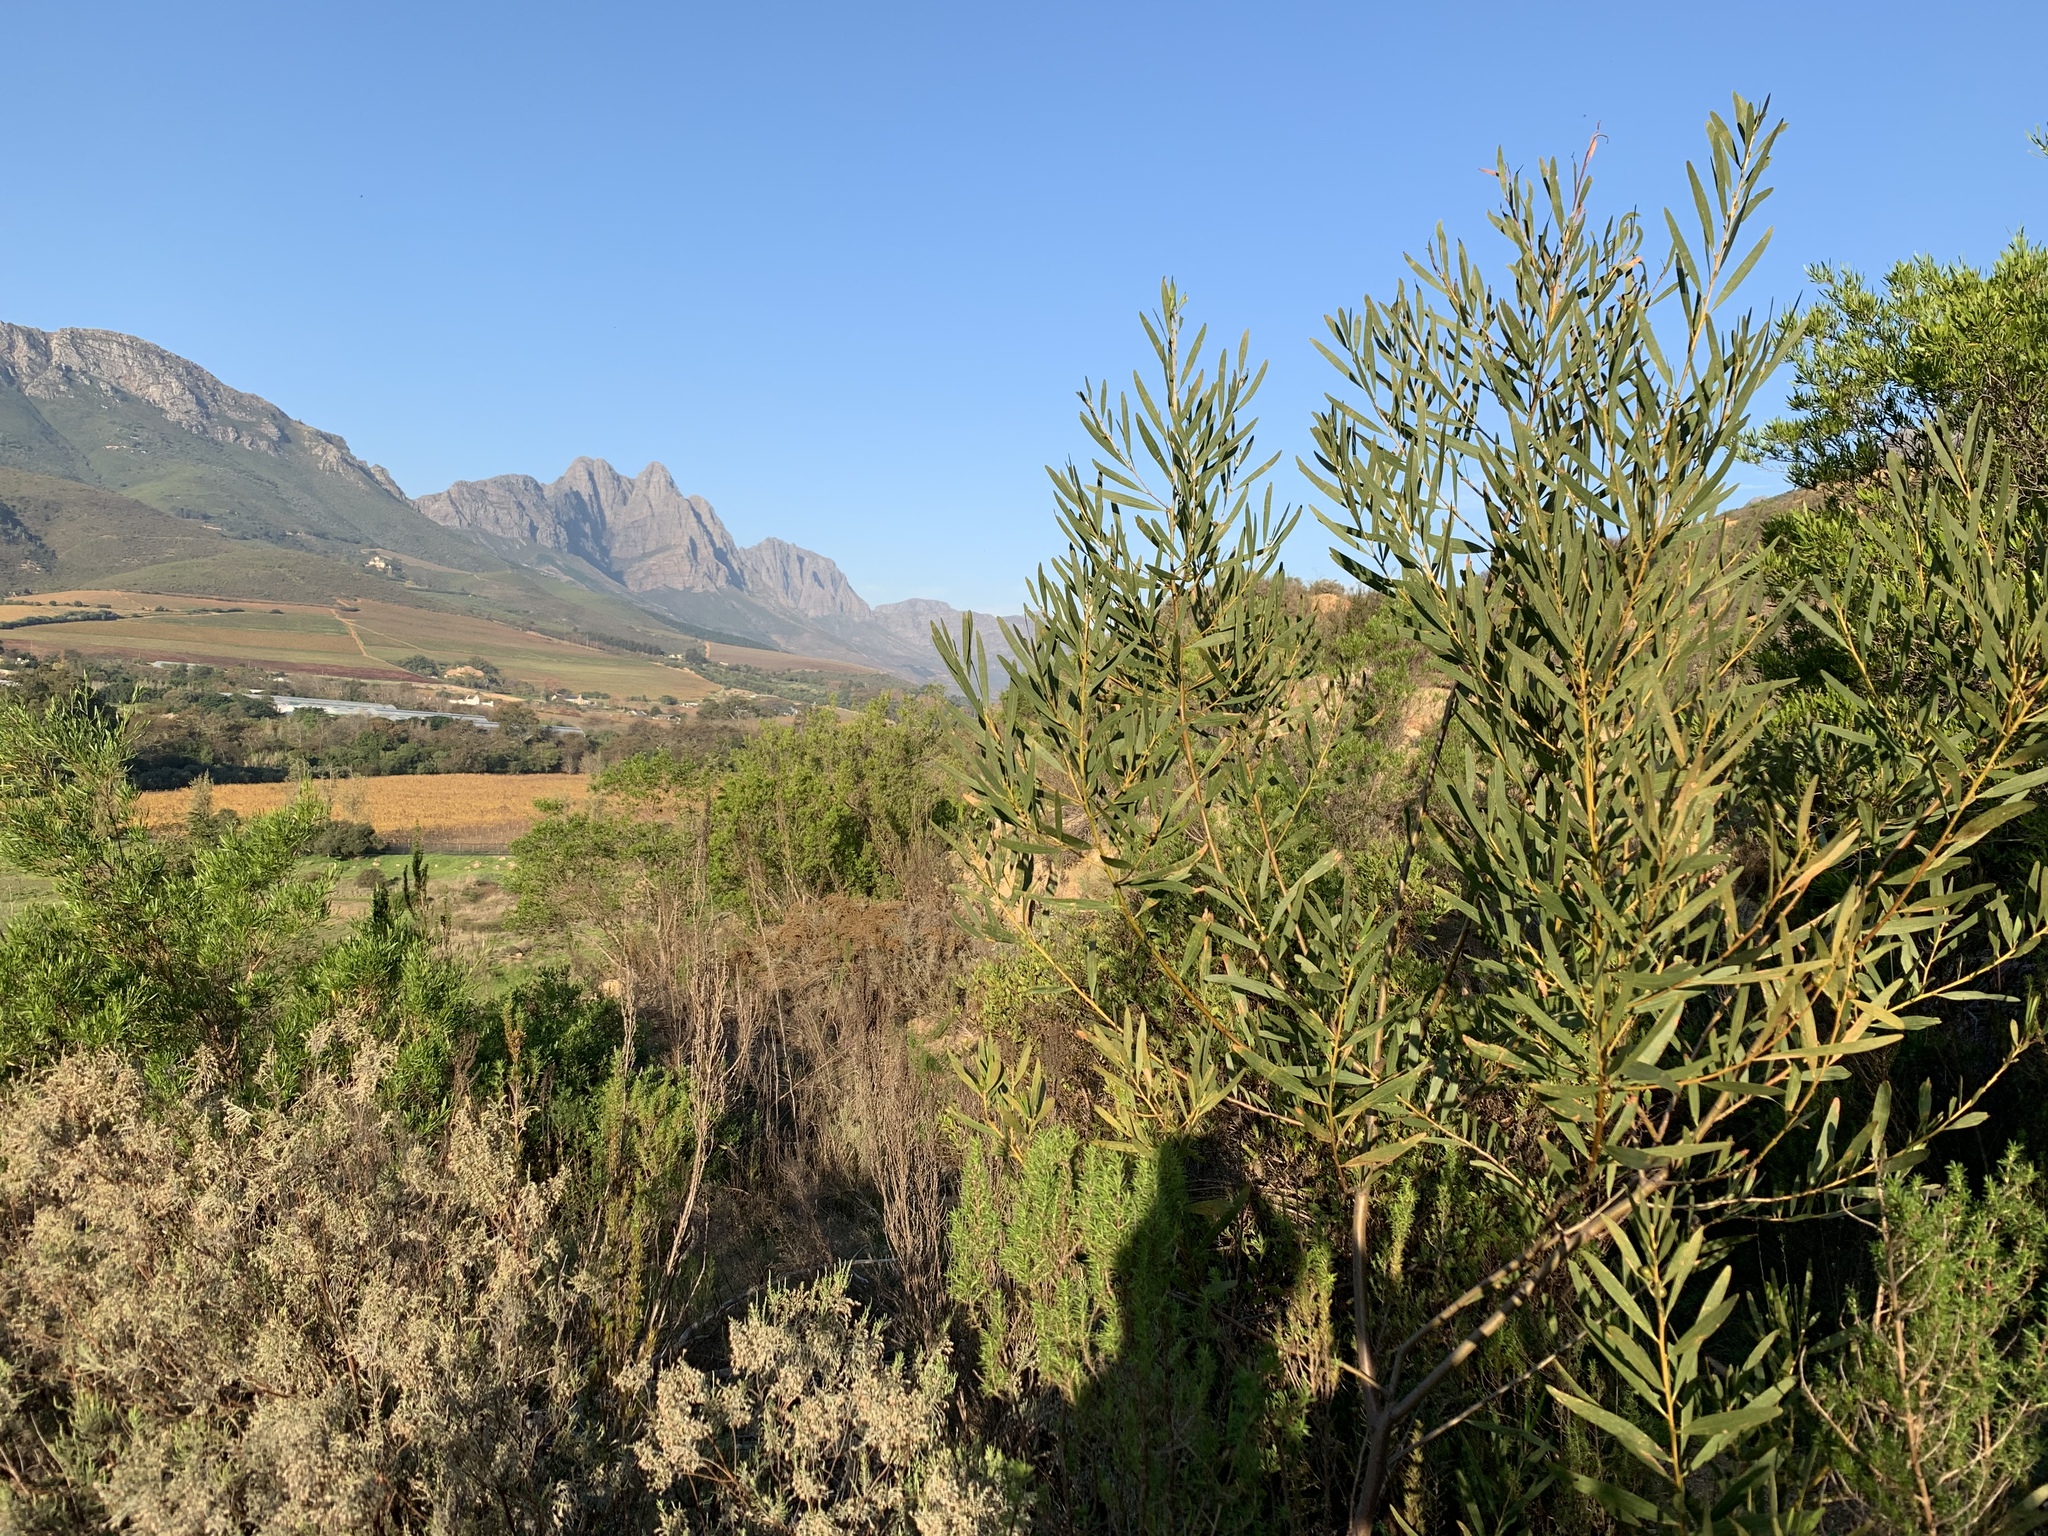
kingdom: Plantae
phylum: Tracheophyta
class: Magnoliopsida
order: Fabales
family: Fabaceae
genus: Acacia
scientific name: Acacia longifolia
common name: Sydney golden wattle
